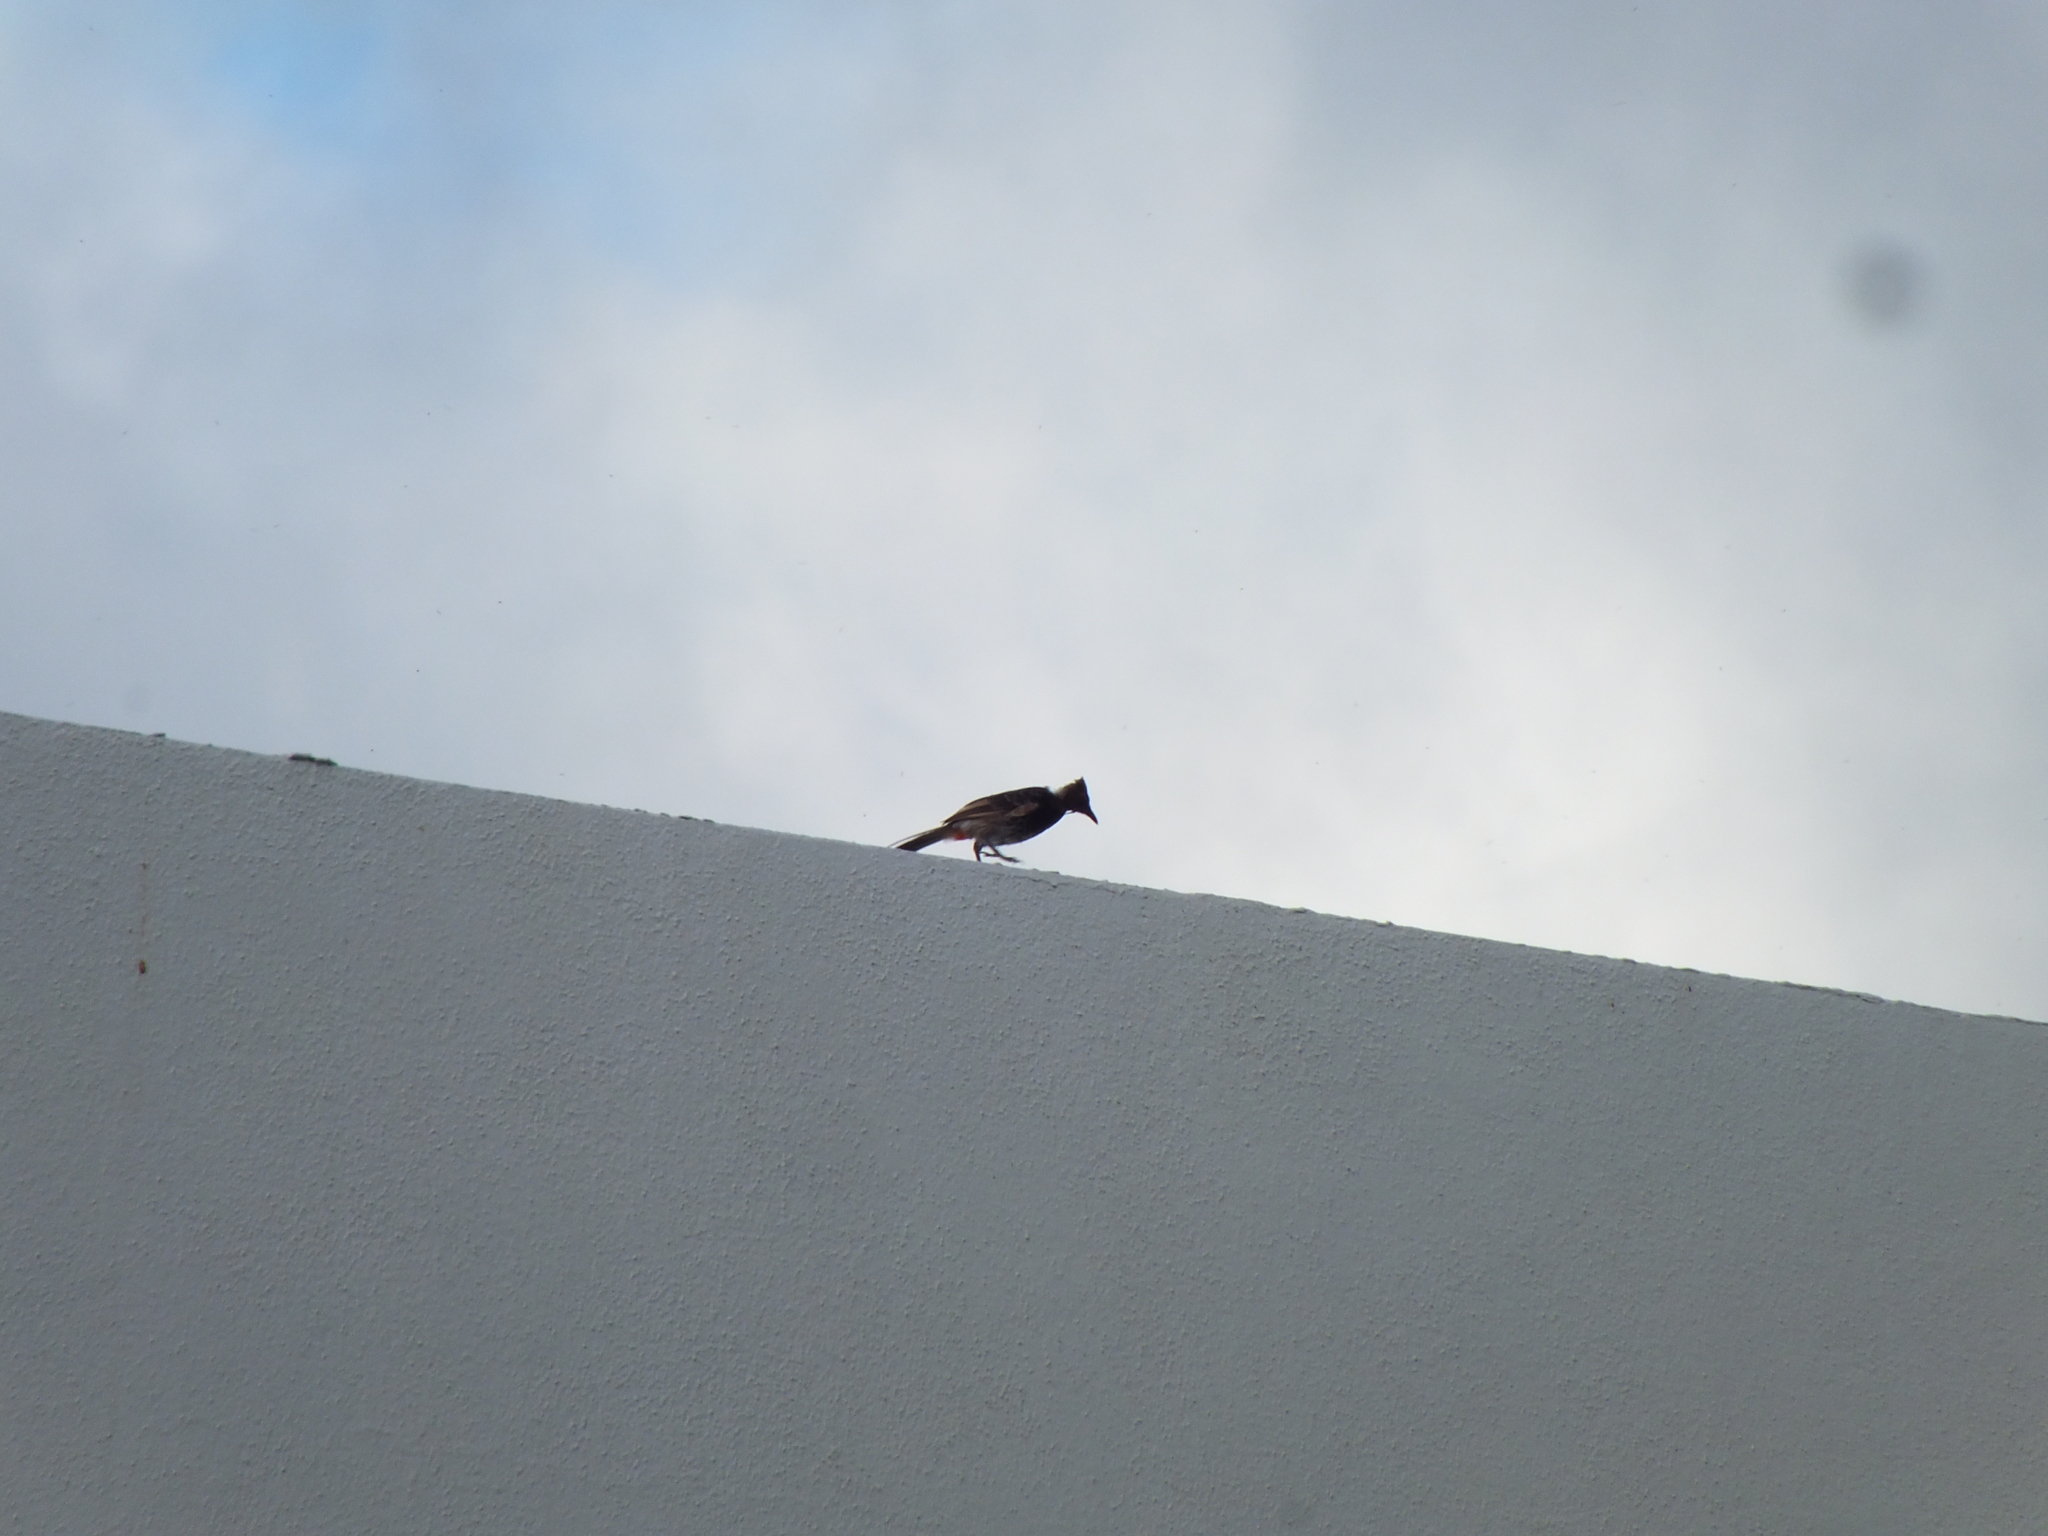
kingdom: Animalia
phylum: Chordata
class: Aves
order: Passeriformes
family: Pycnonotidae
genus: Pycnonotus
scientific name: Pycnonotus cafer
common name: Red-vented bulbul
